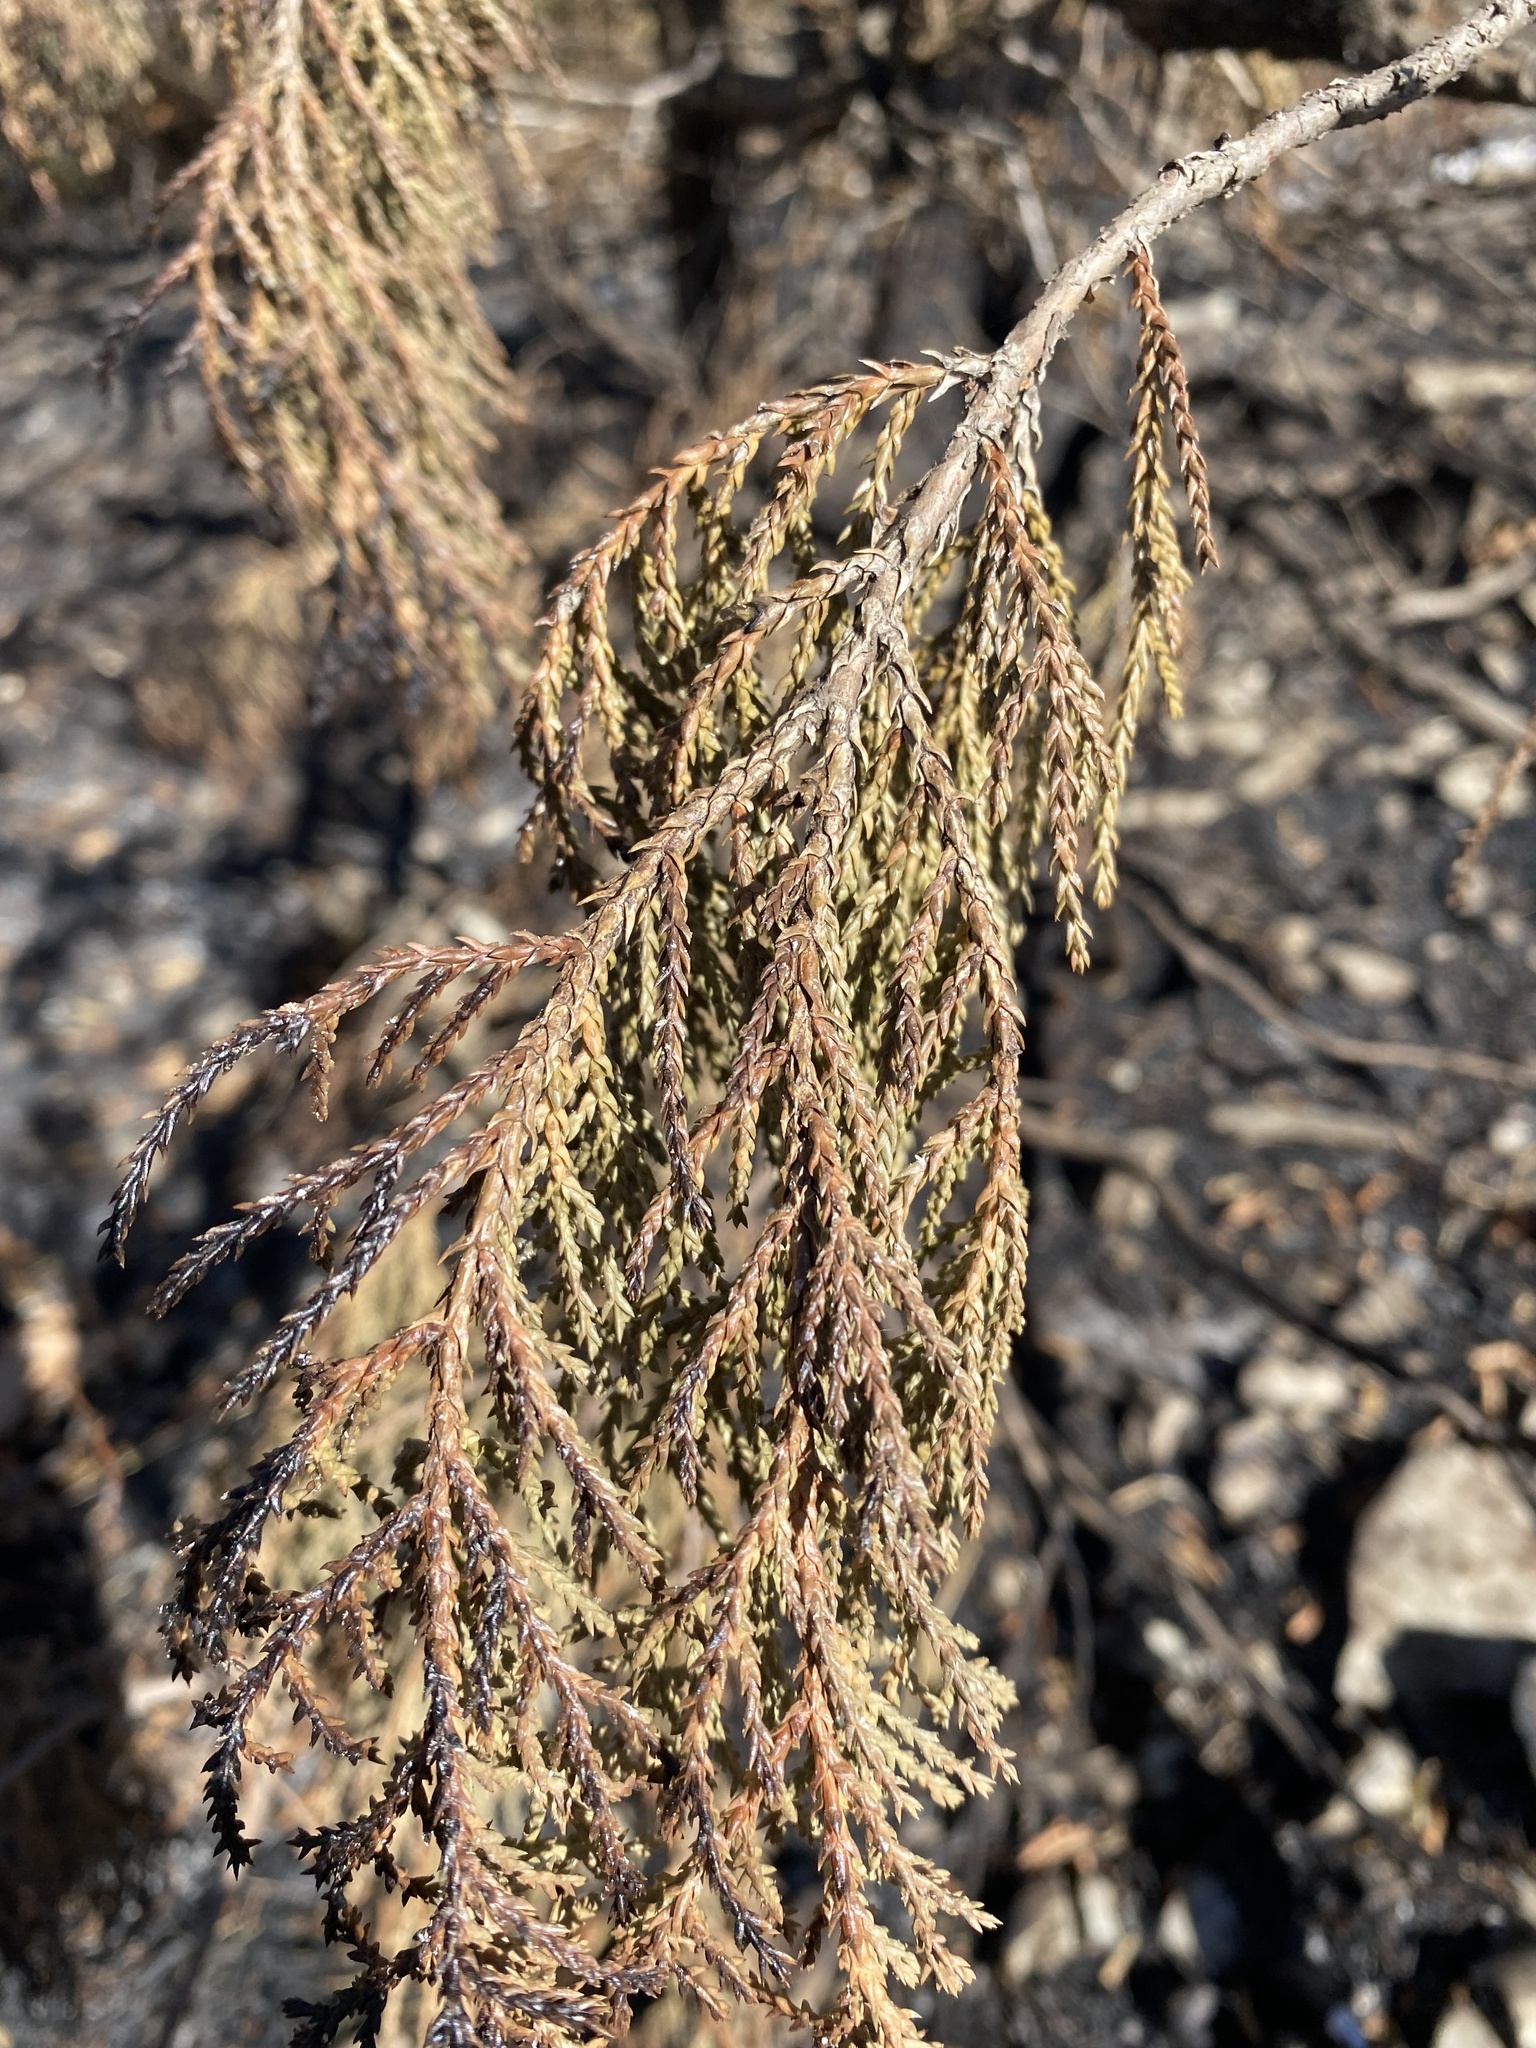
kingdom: Plantae
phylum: Tracheophyta
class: Pinopsida
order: Pinales
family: Cupressaceae
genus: Juniperus
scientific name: Juniperus excelsa
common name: Crimean juniper
